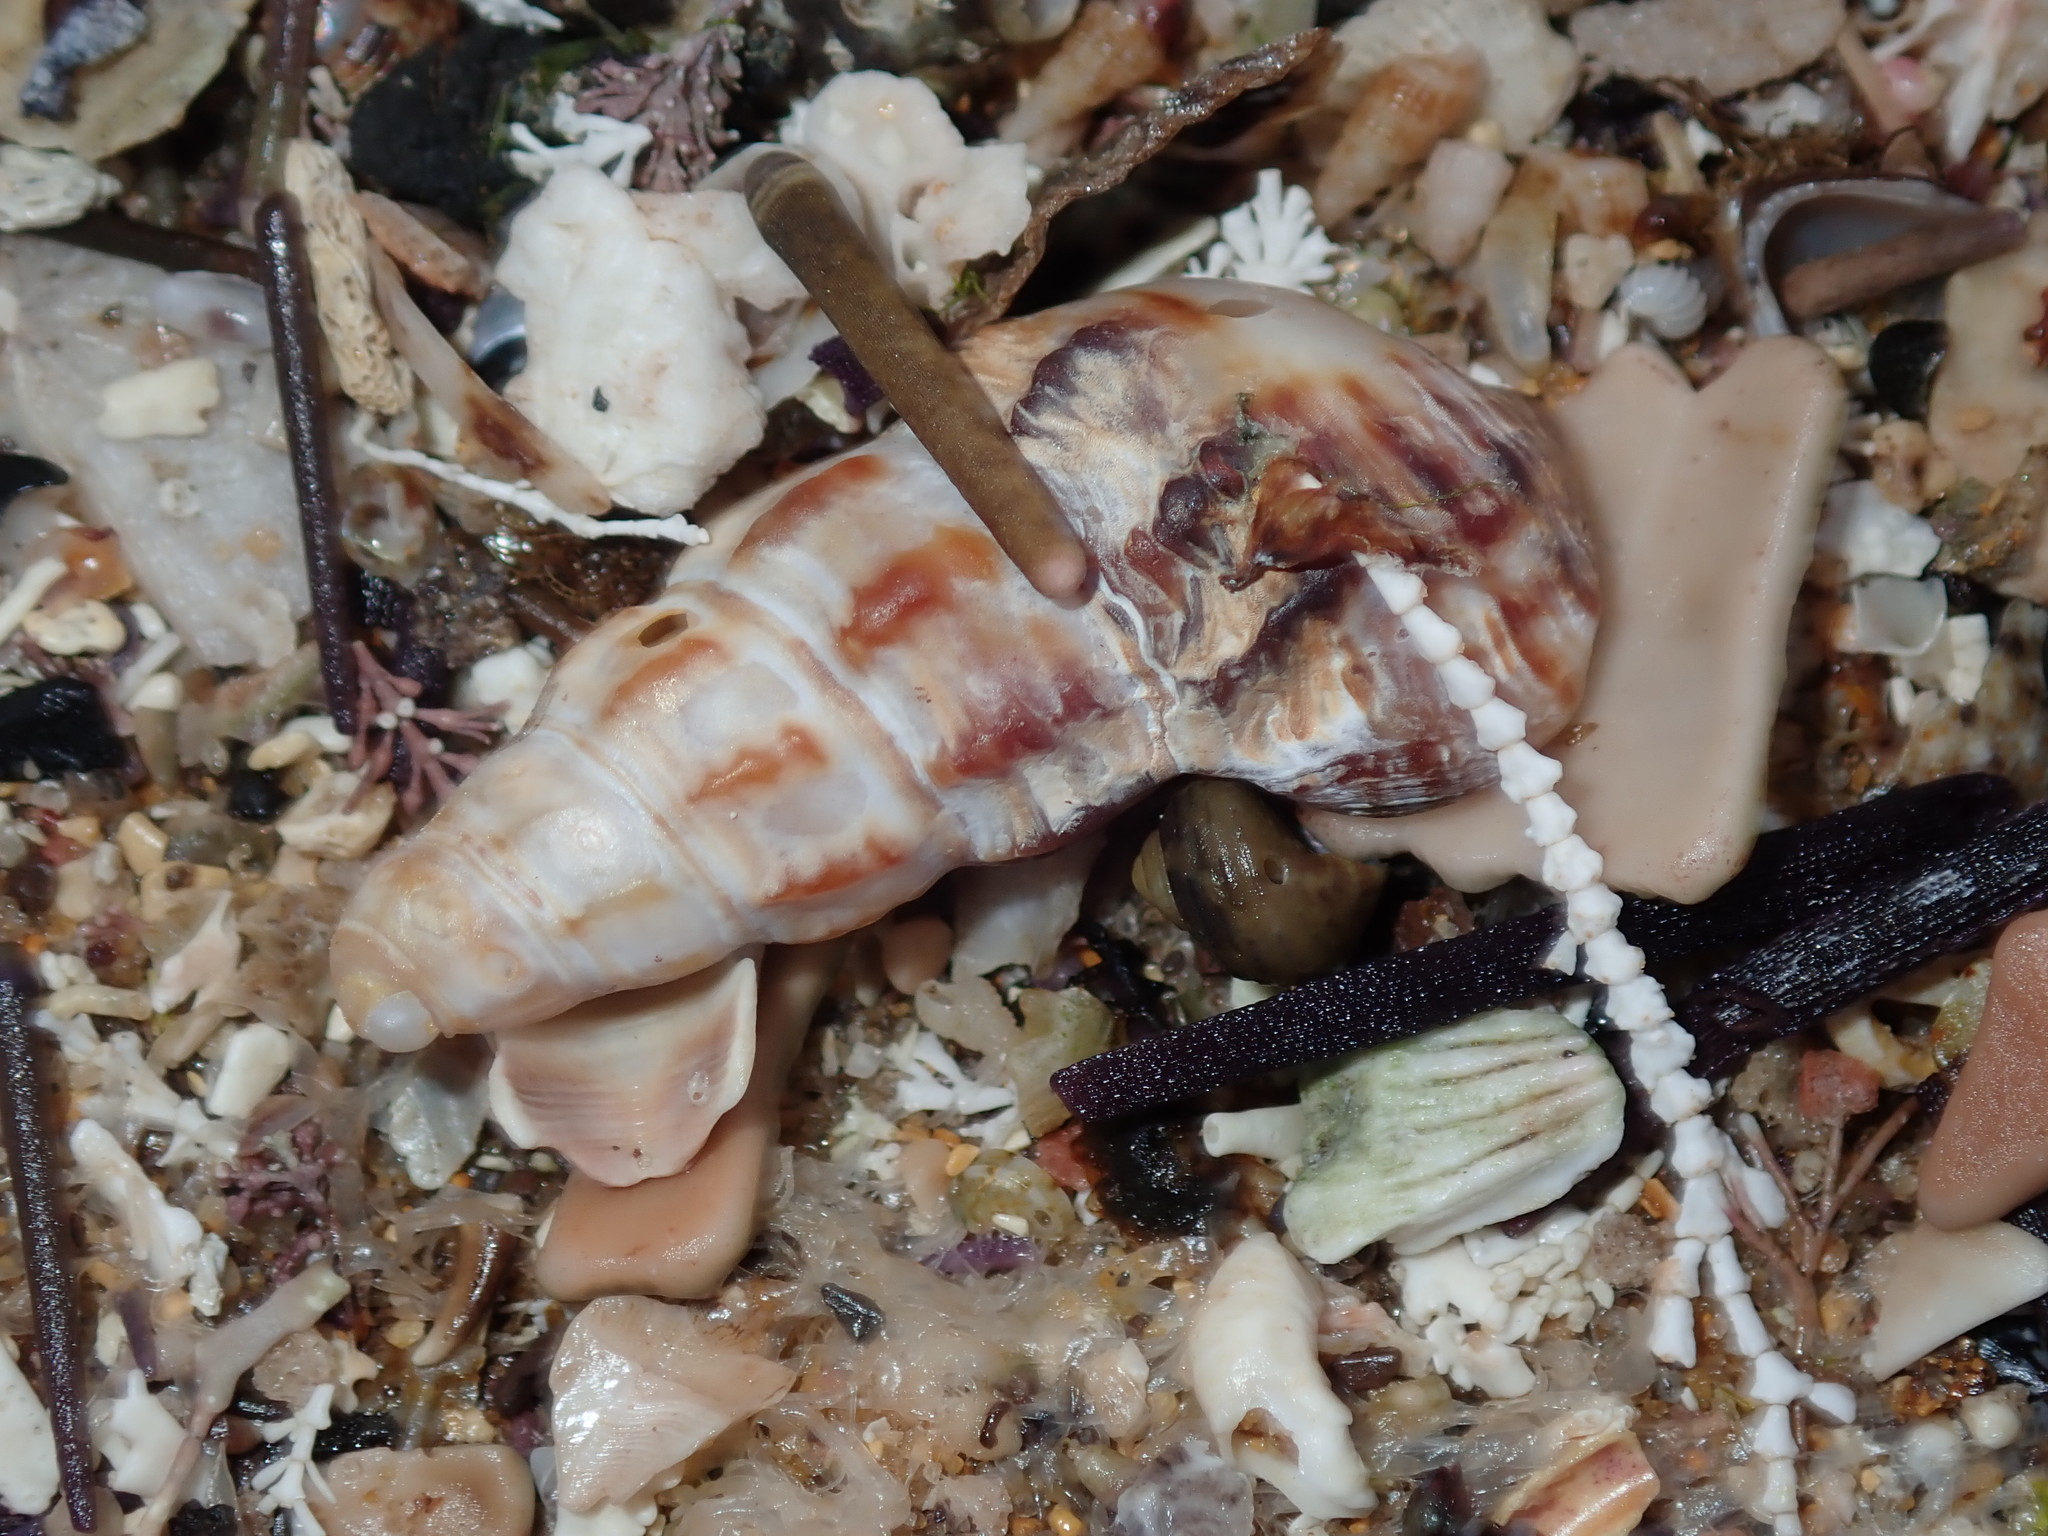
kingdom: Animalia
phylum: Mollusca
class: Gastropoda
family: Batillariidae
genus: Batillaria
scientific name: Batillaria australis
